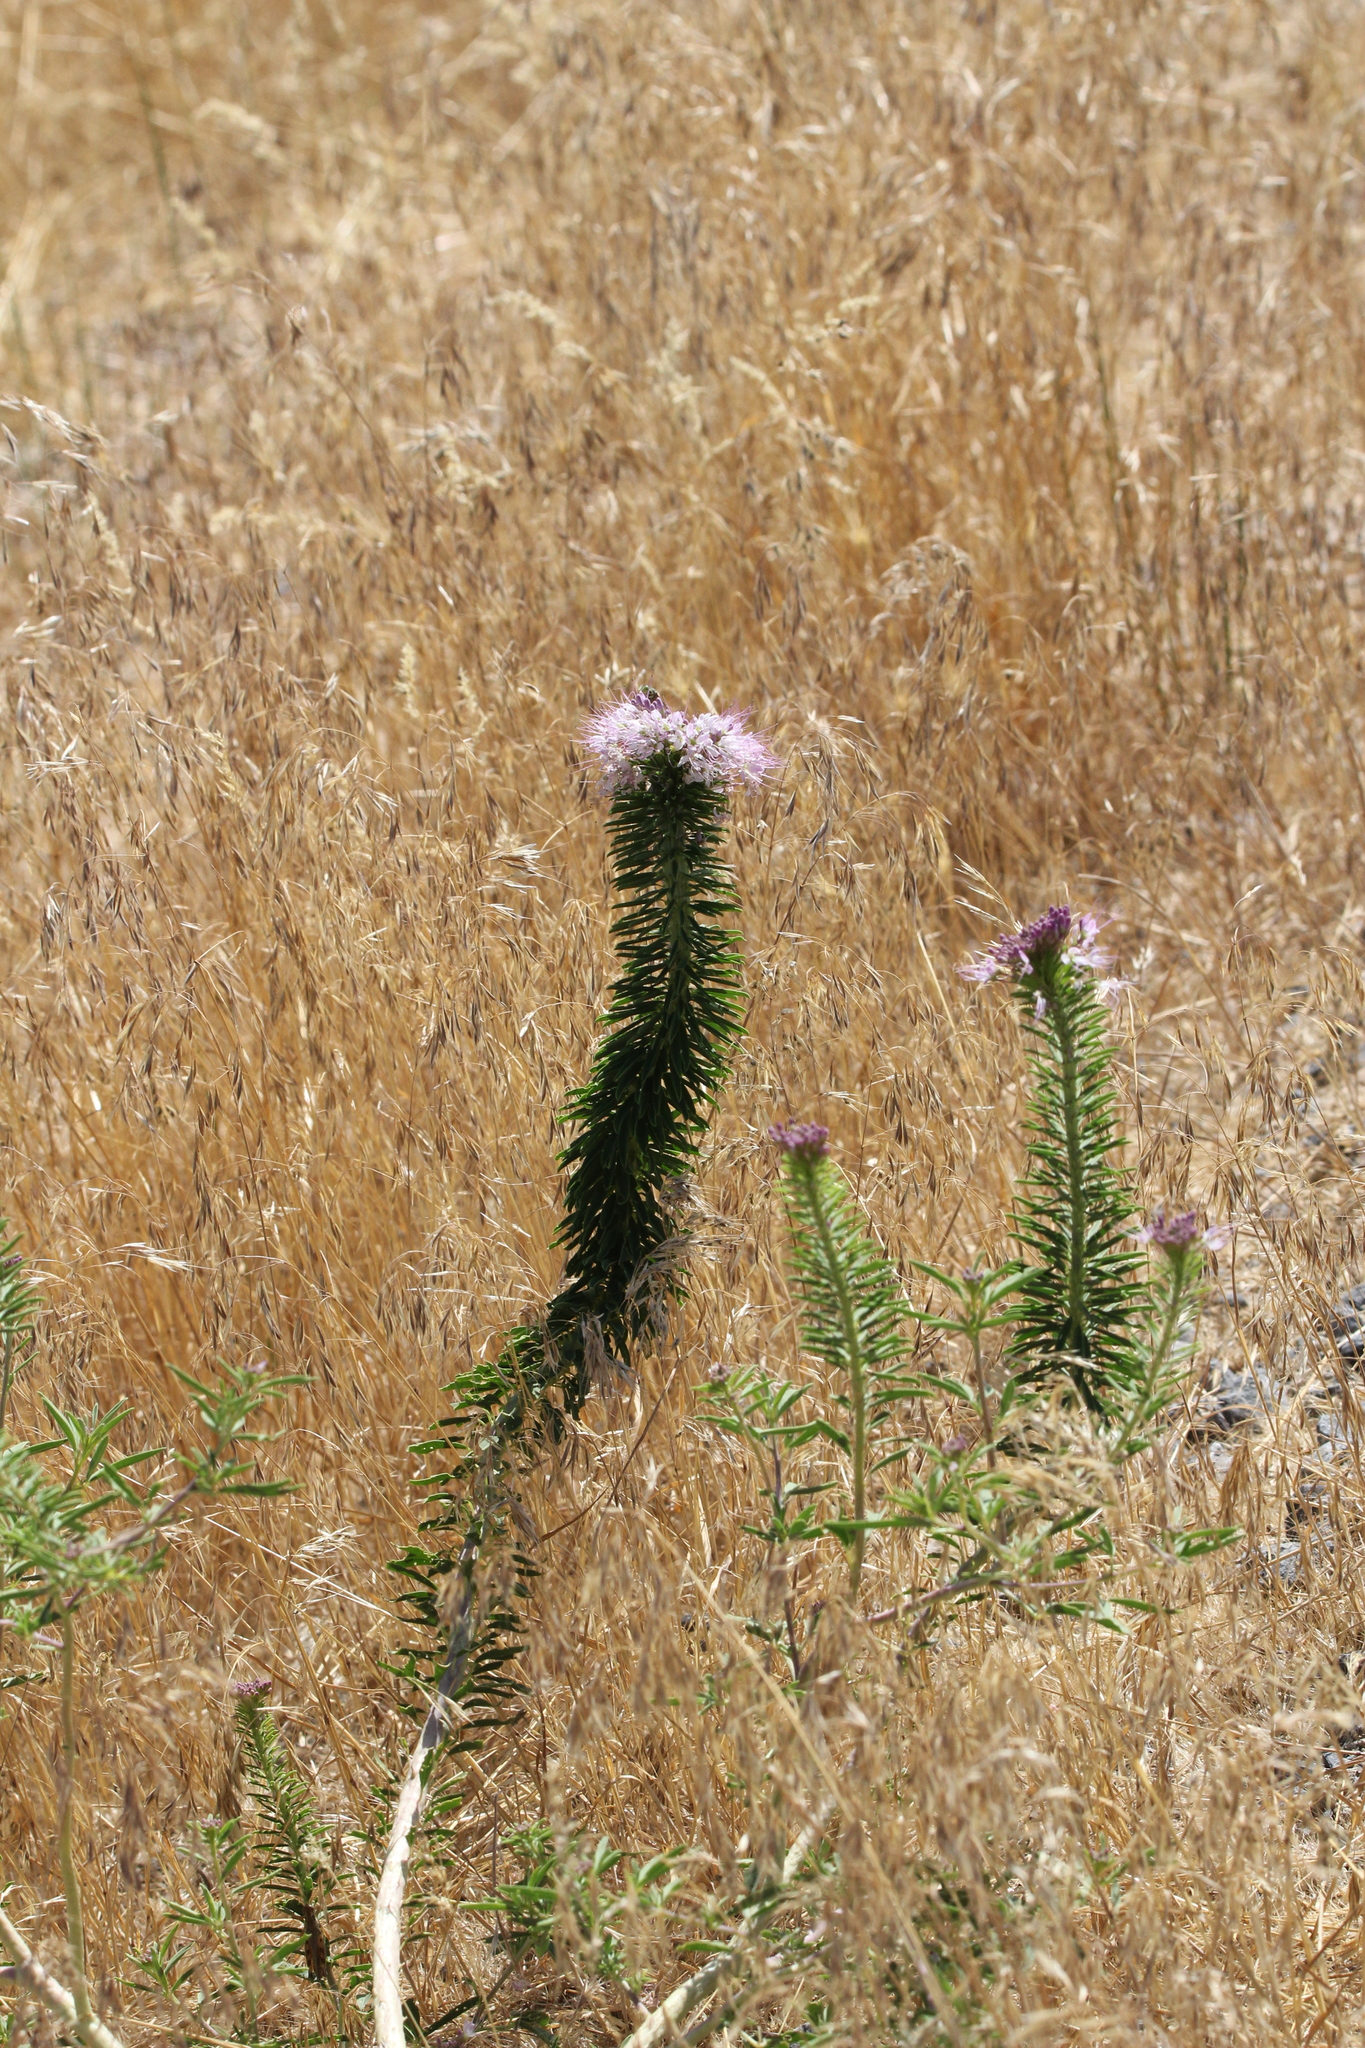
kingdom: Plantae
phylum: Tracheophyta
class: Magnoliopsida
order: Brassicales
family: Cleomaceae
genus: Cleomella
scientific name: Cleomella serrulata
